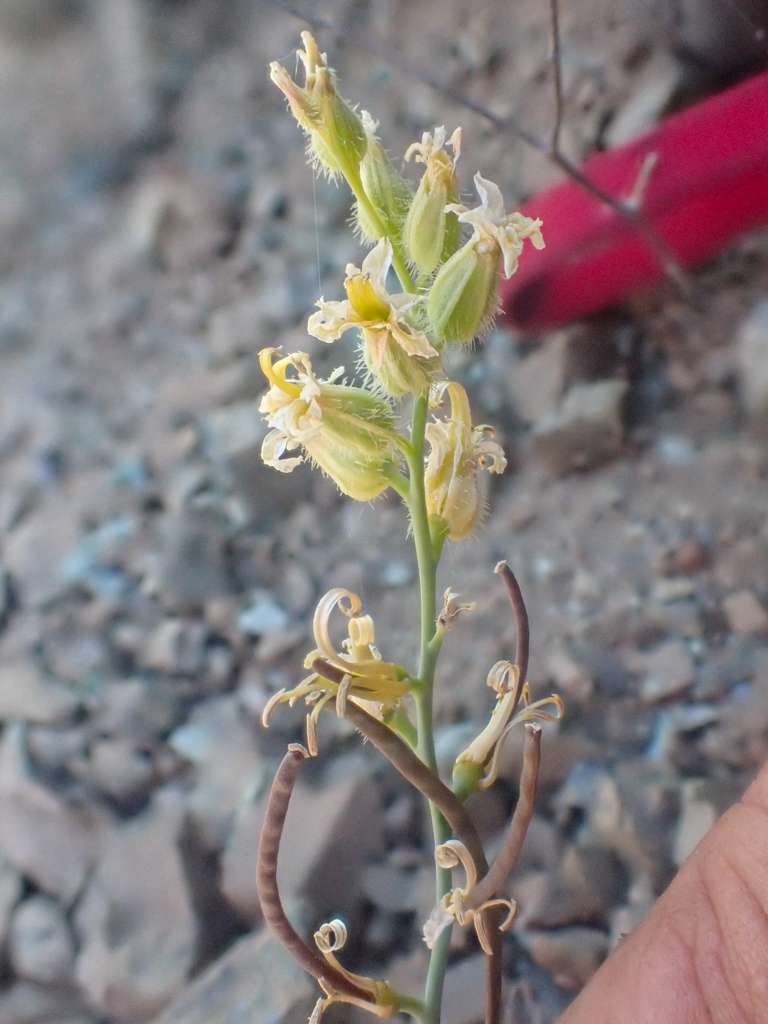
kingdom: Plantae
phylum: Tracheophyta
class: Magnoliopsida
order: Brassicales
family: Brassicaceae
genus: Streptanthus
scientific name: Streptanthus morrisonii
